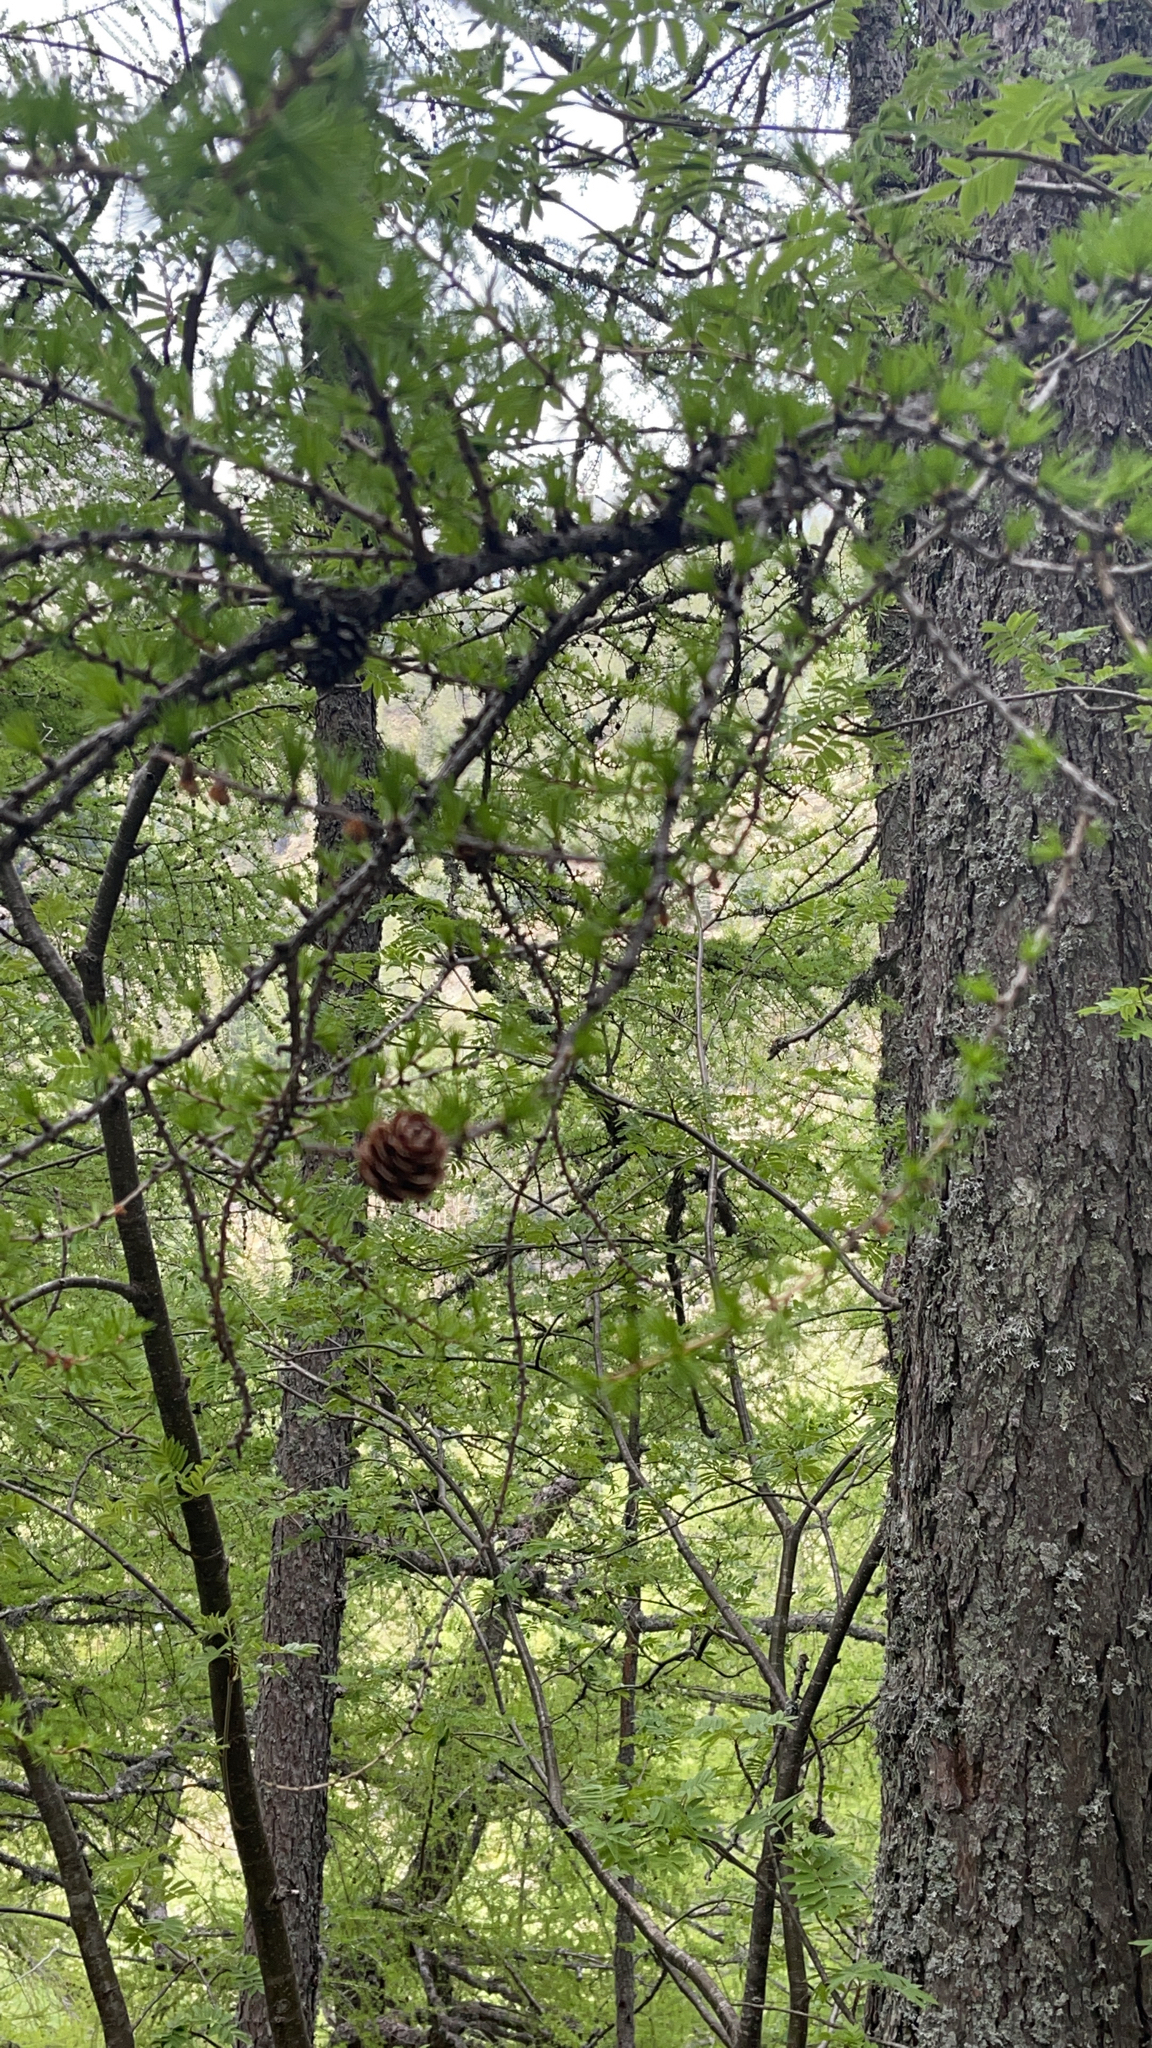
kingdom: Plantae
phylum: Tracheophyta
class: Pinopsida
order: Pinales
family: Pinaceae
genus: Larix
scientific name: Larix decidua
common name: European larch
